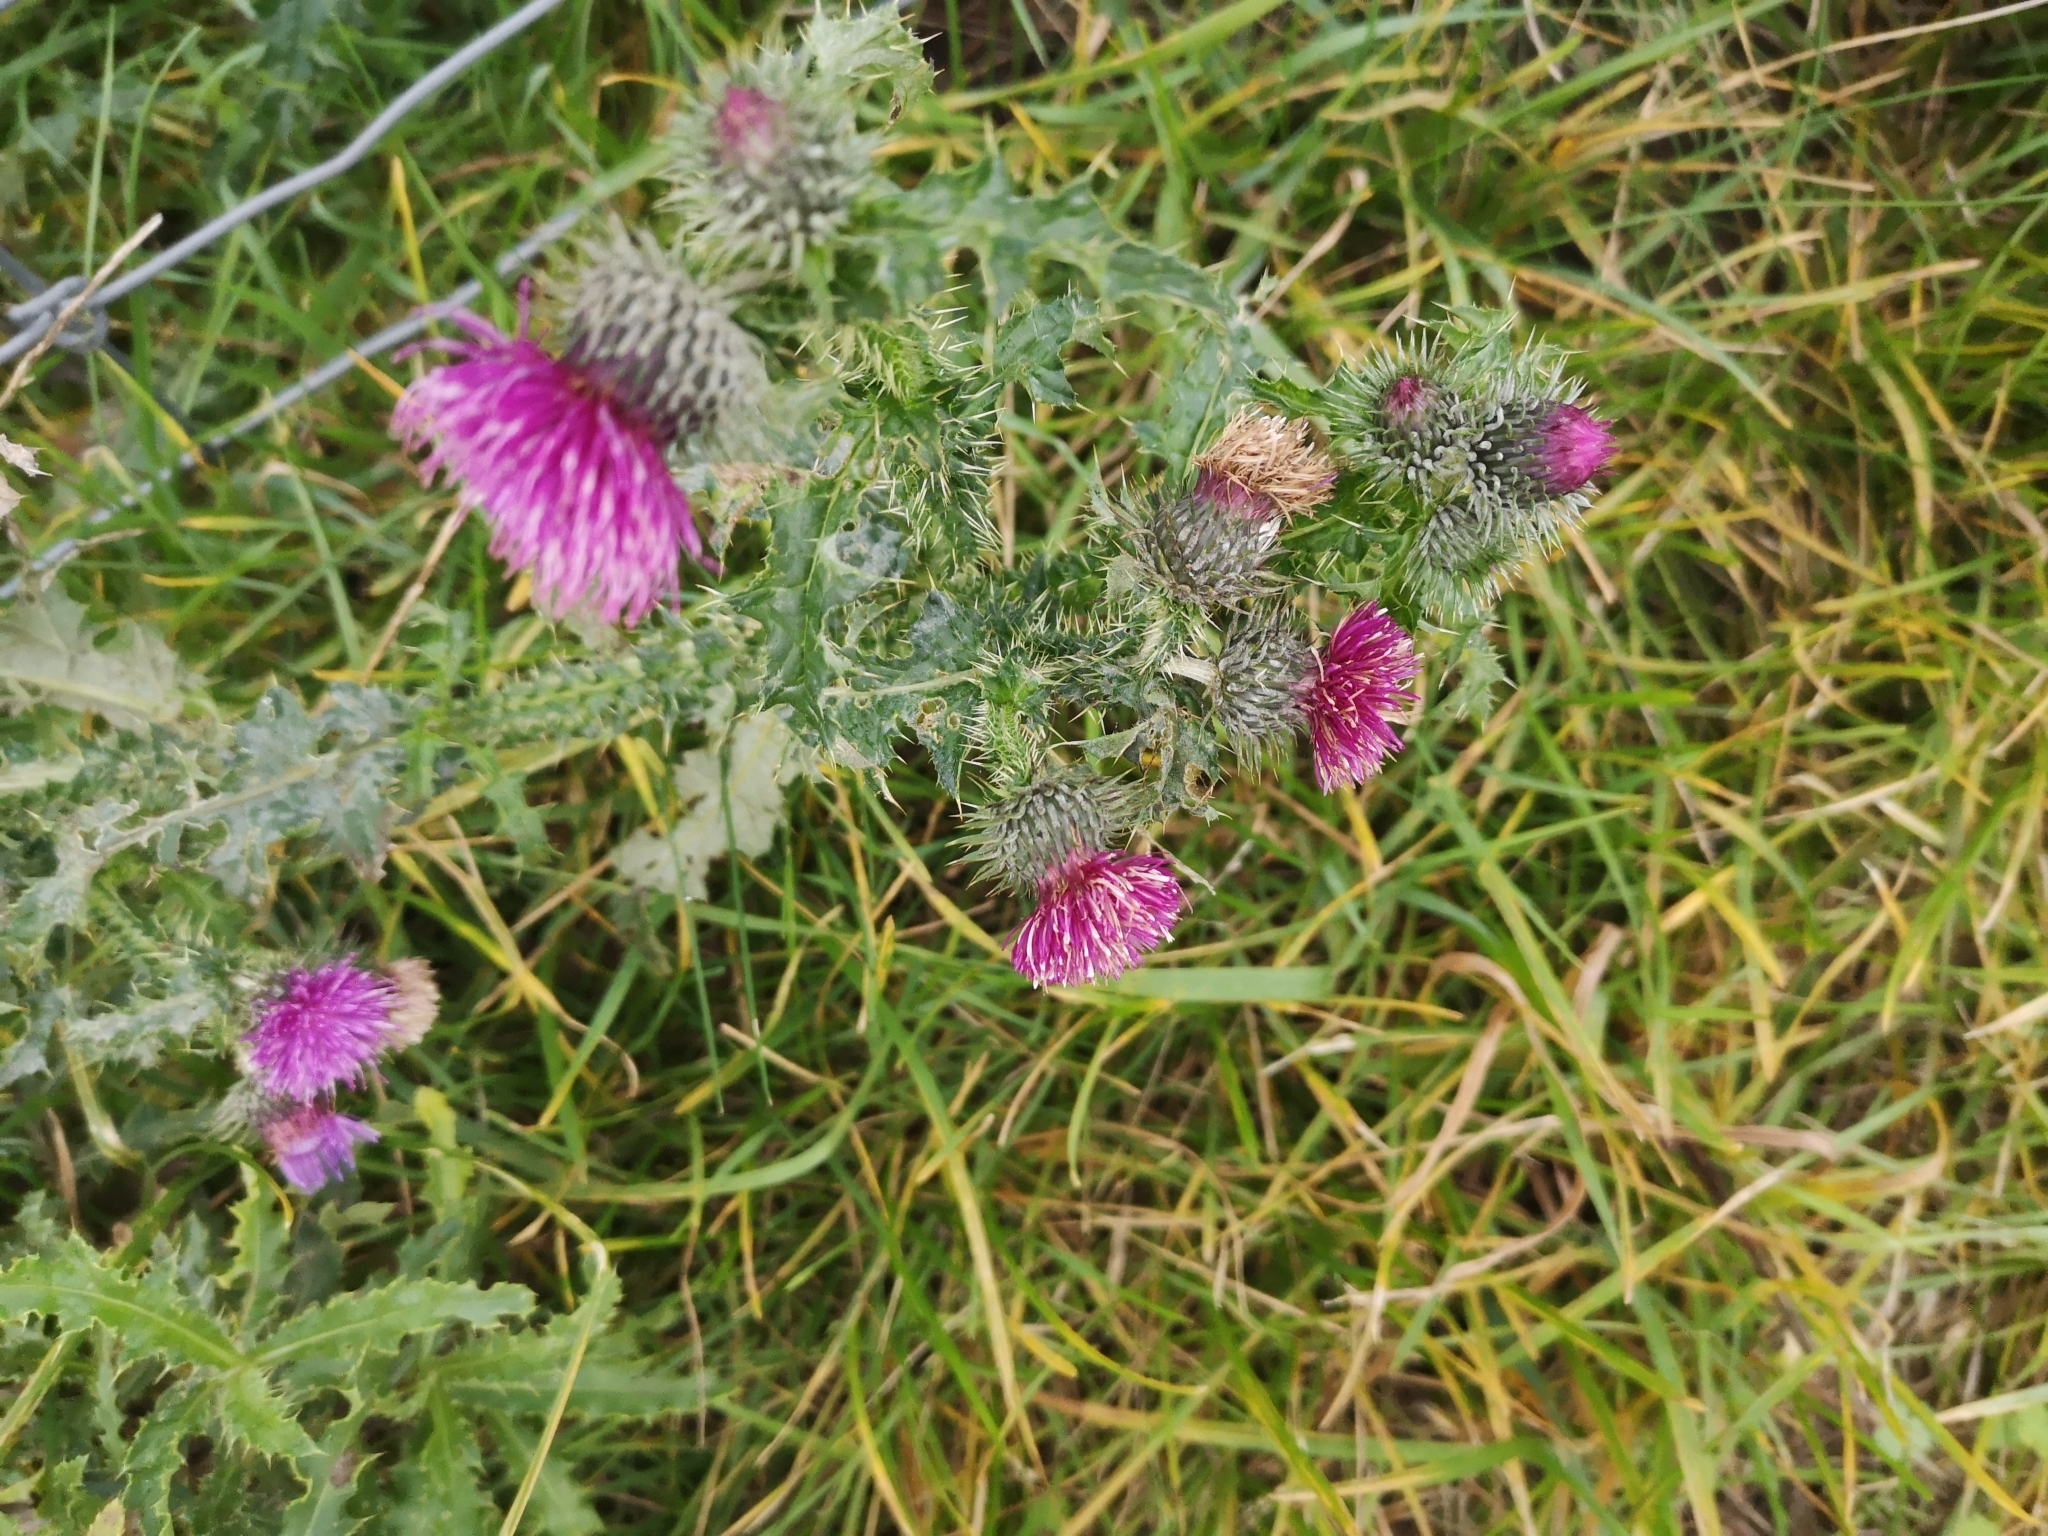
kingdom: Plantae
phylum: Tracheophyta
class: Magnoliopsida
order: Asterales
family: Asteraceae
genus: Carduus
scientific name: Carduus crispus
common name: Welted thistle
